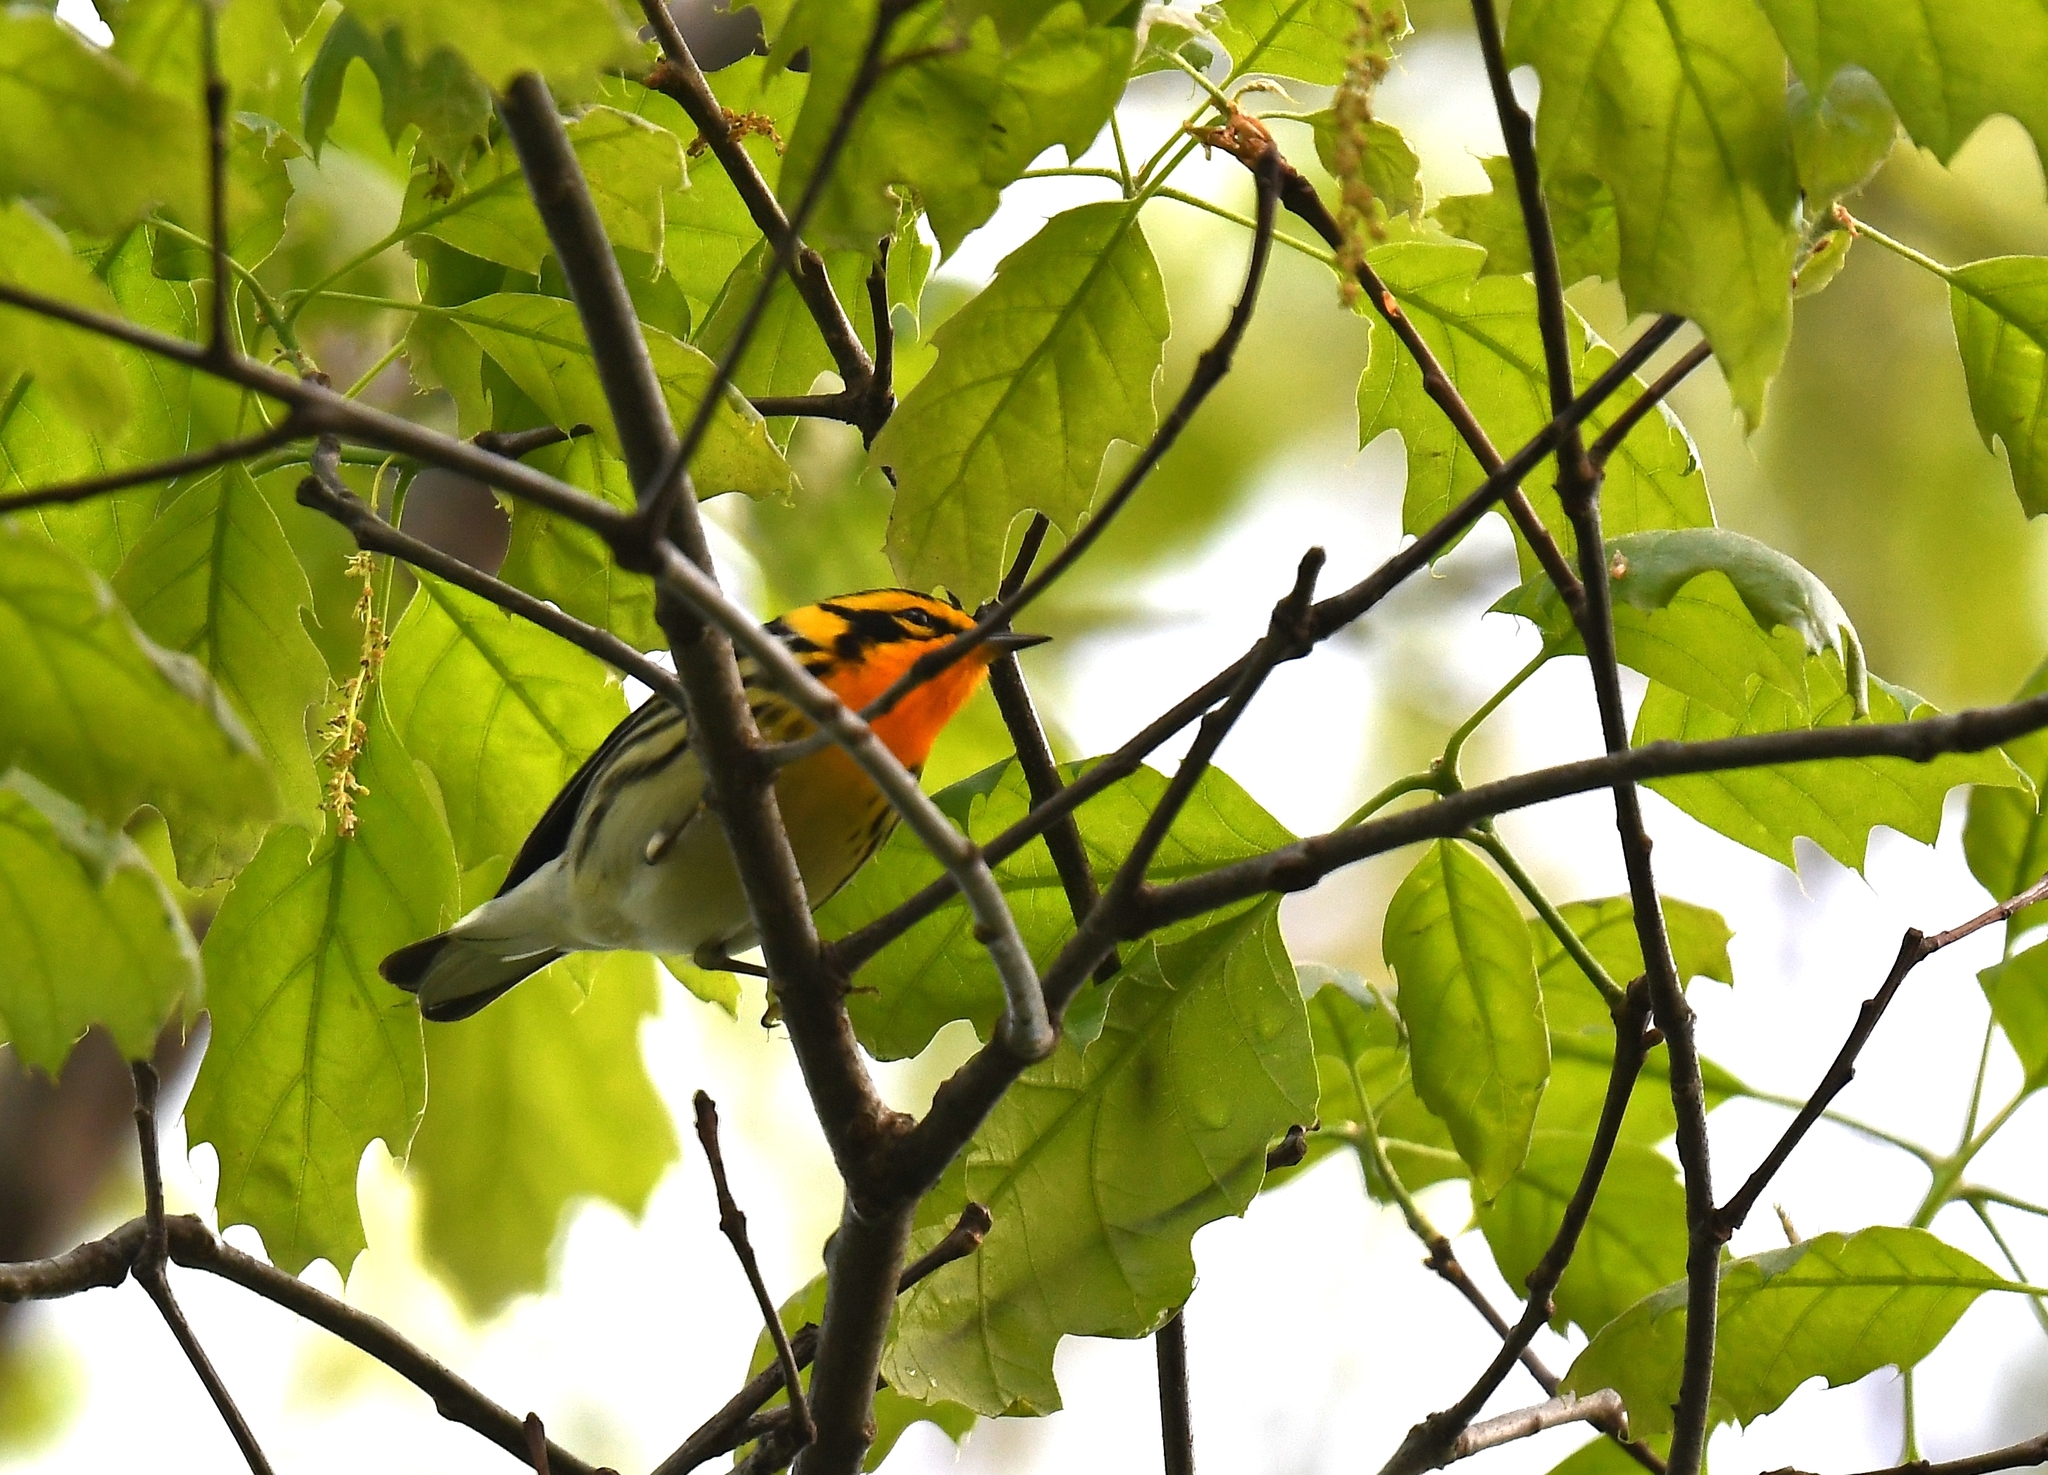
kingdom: Animalia
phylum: Chordata
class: Aves
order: Passeriformes
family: Parulidae
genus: Setophaga
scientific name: Setophaga fusca
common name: Blackburnian warbler
